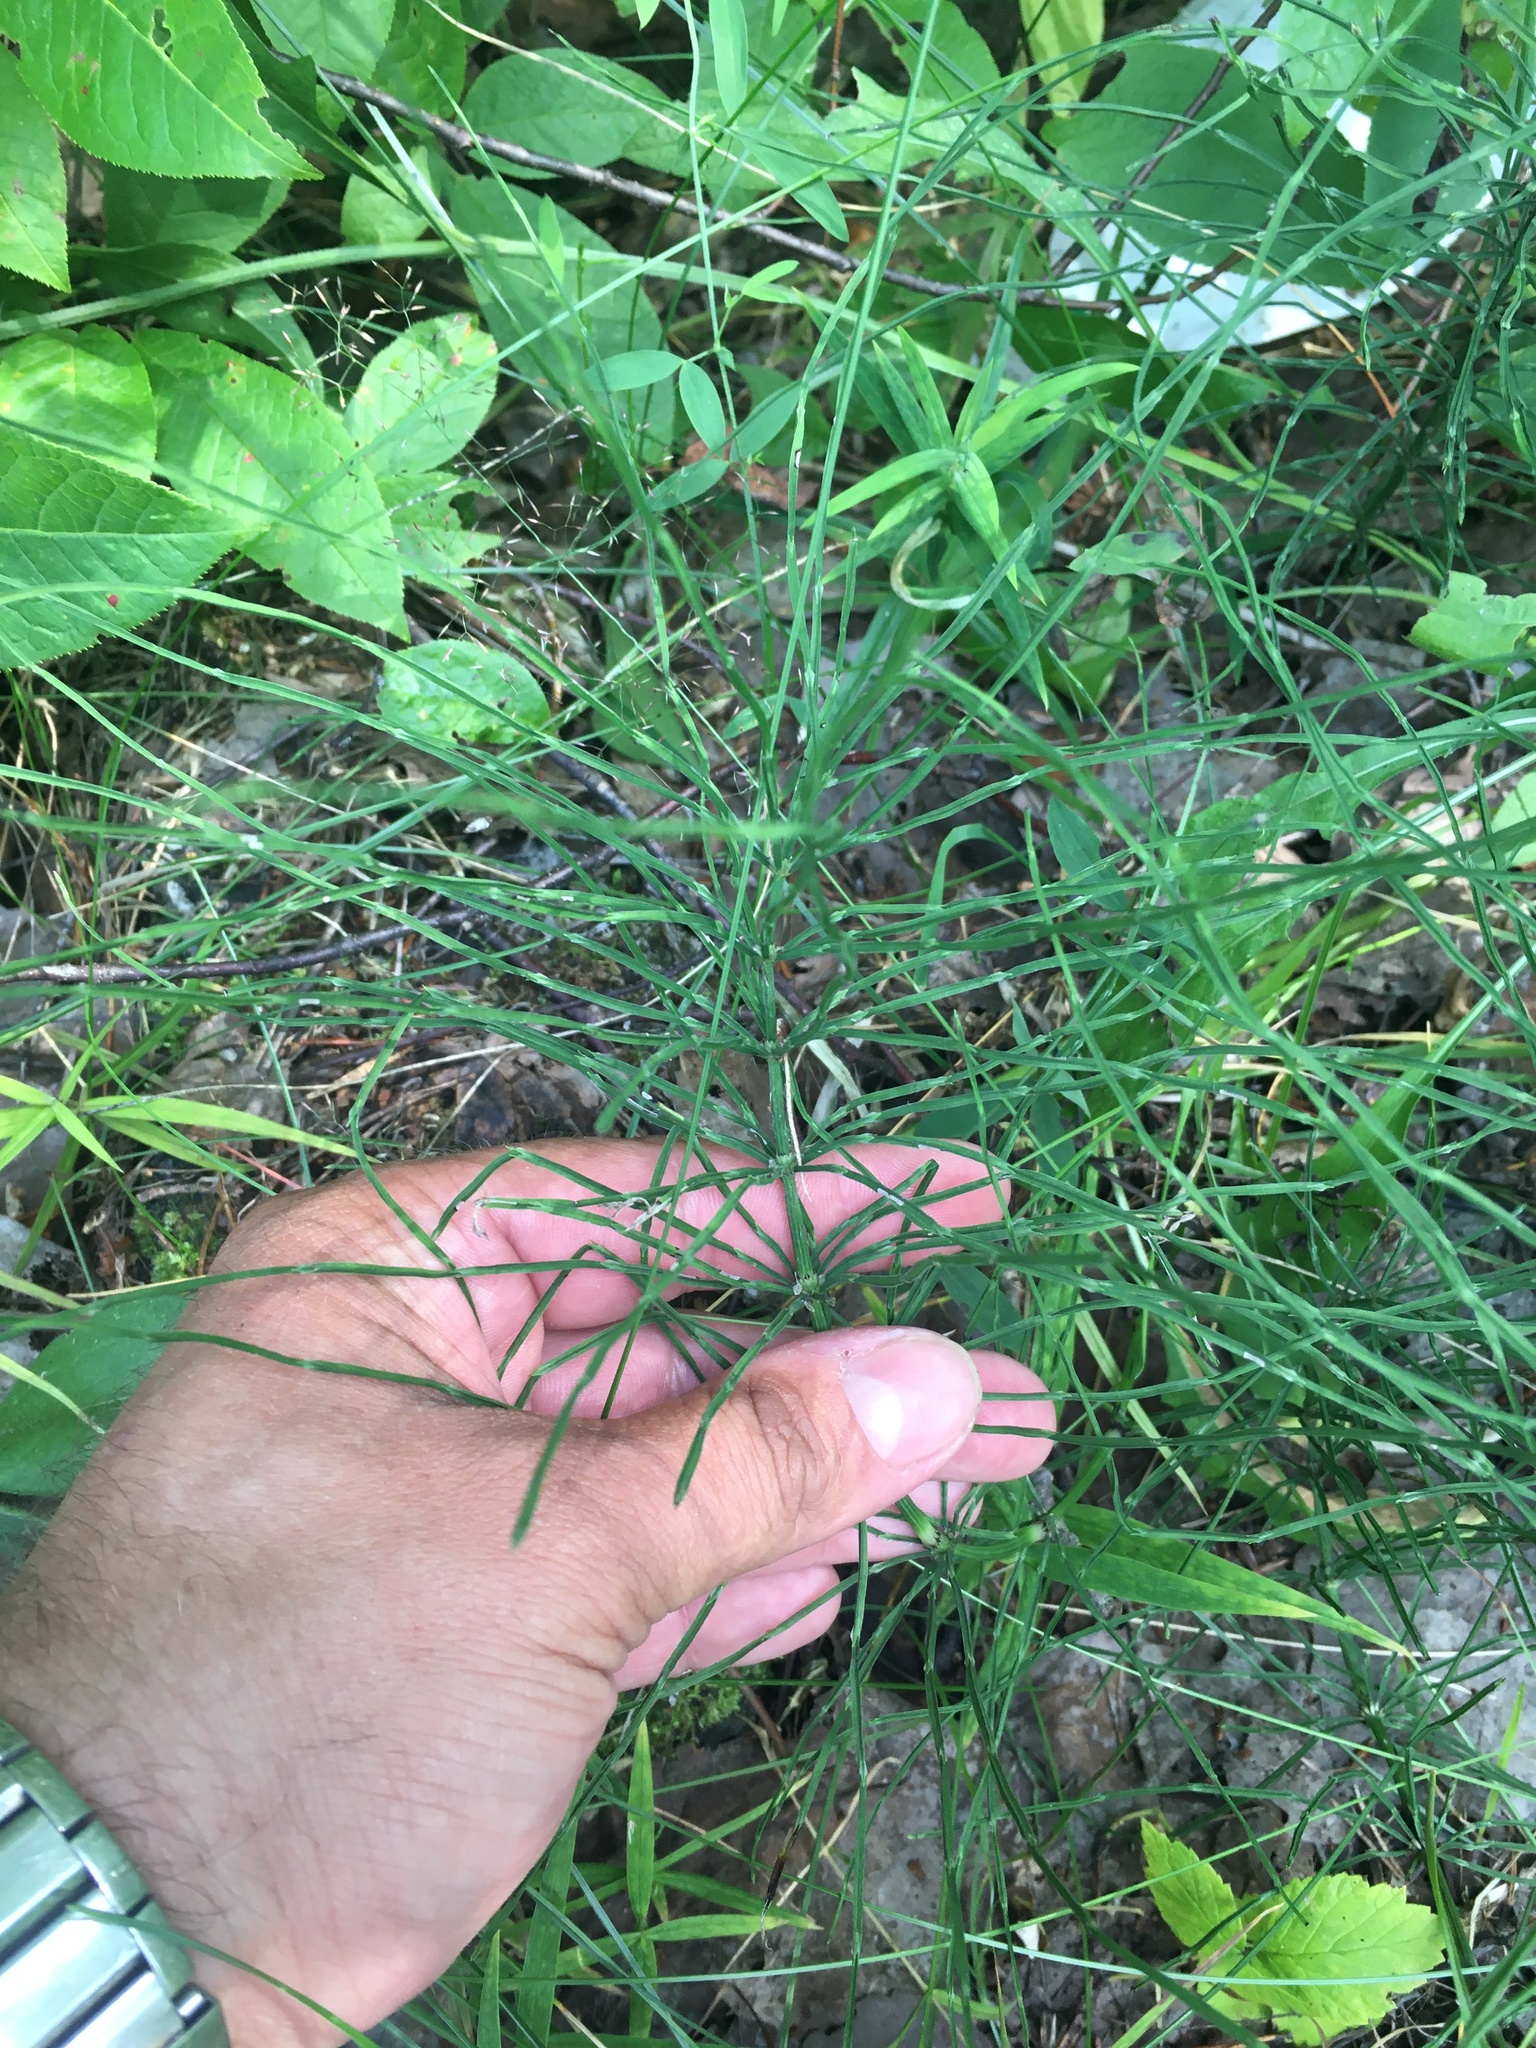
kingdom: Plantae
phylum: Tracheophyta
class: Polypodiopsida
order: Equisetales
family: Equisetaceae
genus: Equisetum
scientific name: Equisetum arvense
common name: Field horsetail
